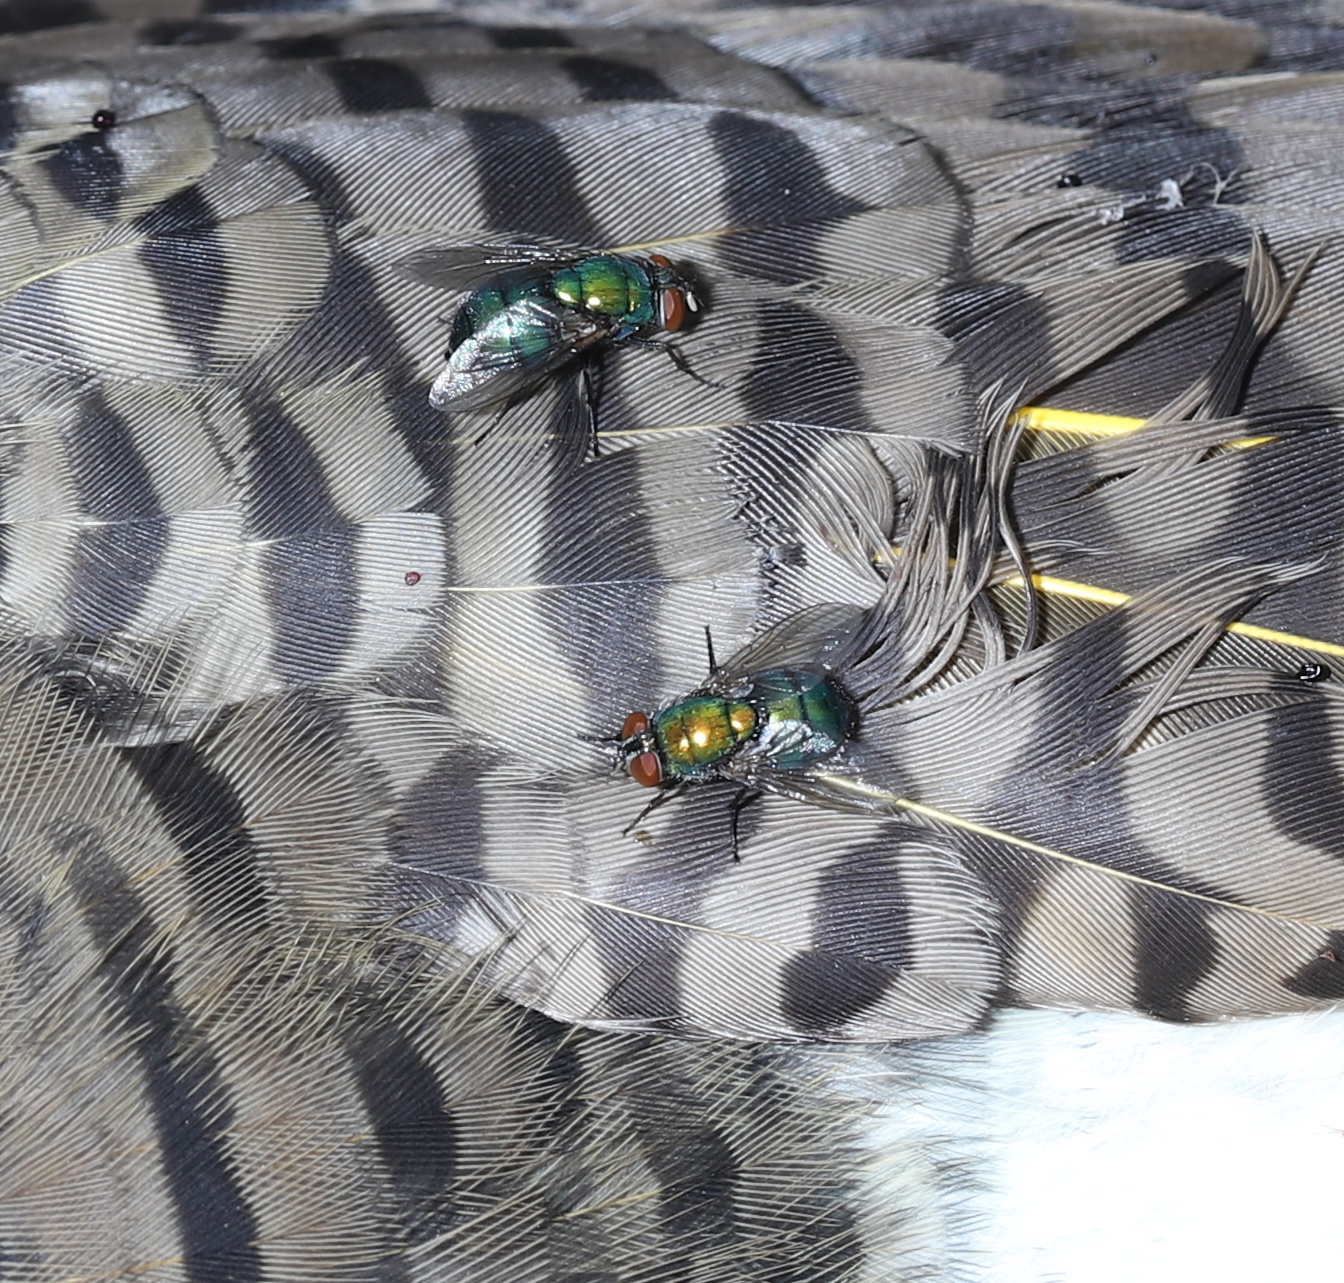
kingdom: Animalia
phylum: Arthropoda
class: Insecta
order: Diptera
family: Calliphoridae
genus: Lucilia
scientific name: Lucilia sericata
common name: Blow fly
